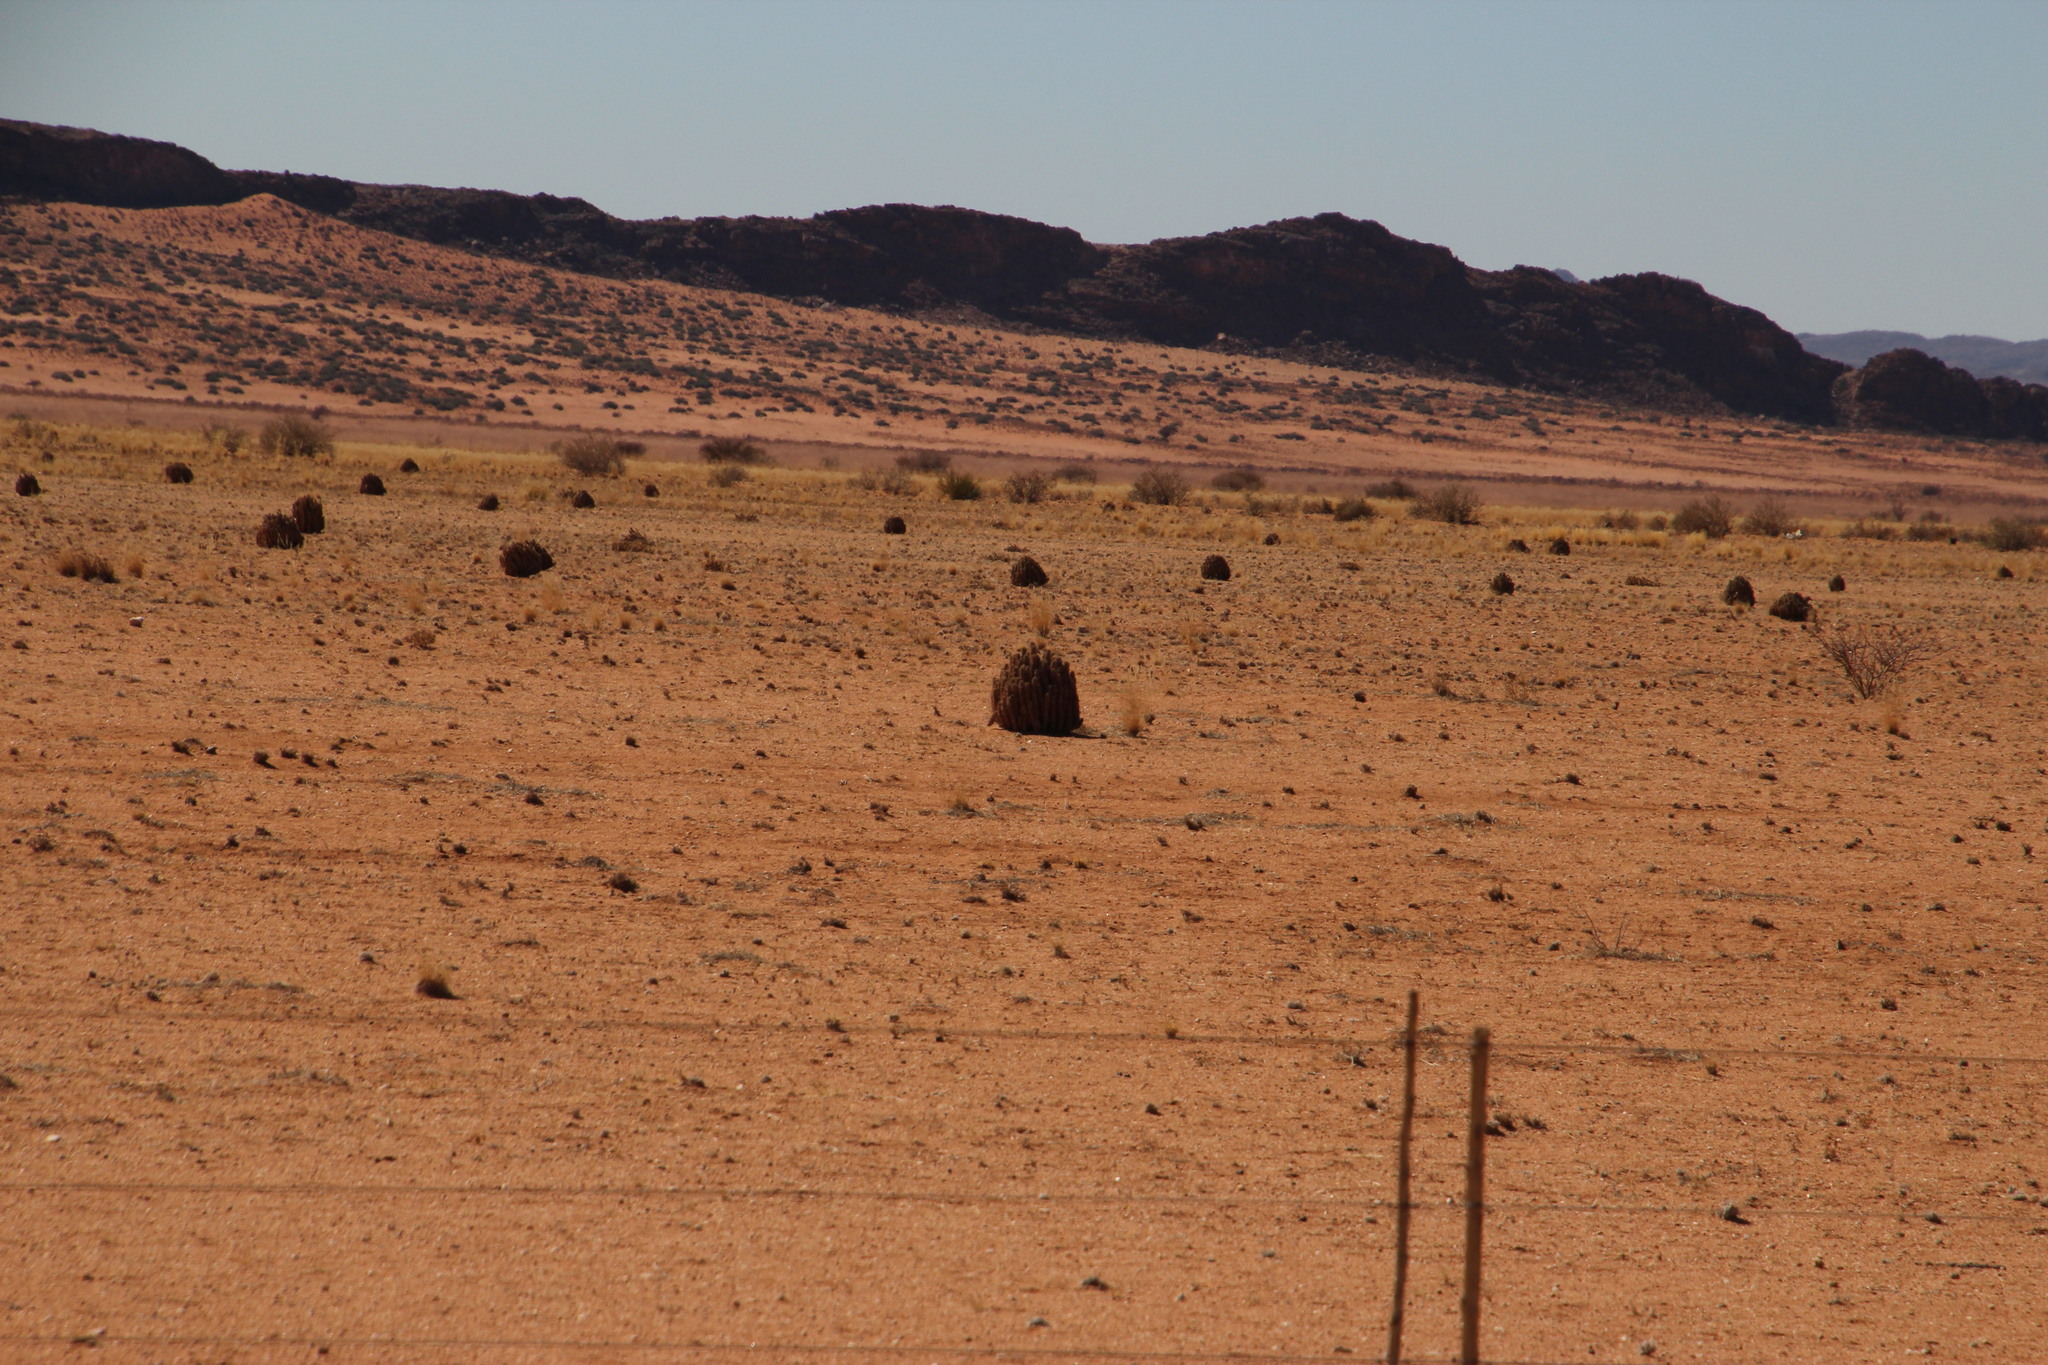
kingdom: Plantae
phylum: Tracheophyta
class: Magnoliopsida
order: Gentianales
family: Apocynaceae
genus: Hoodia
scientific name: Hoodia gordonii
